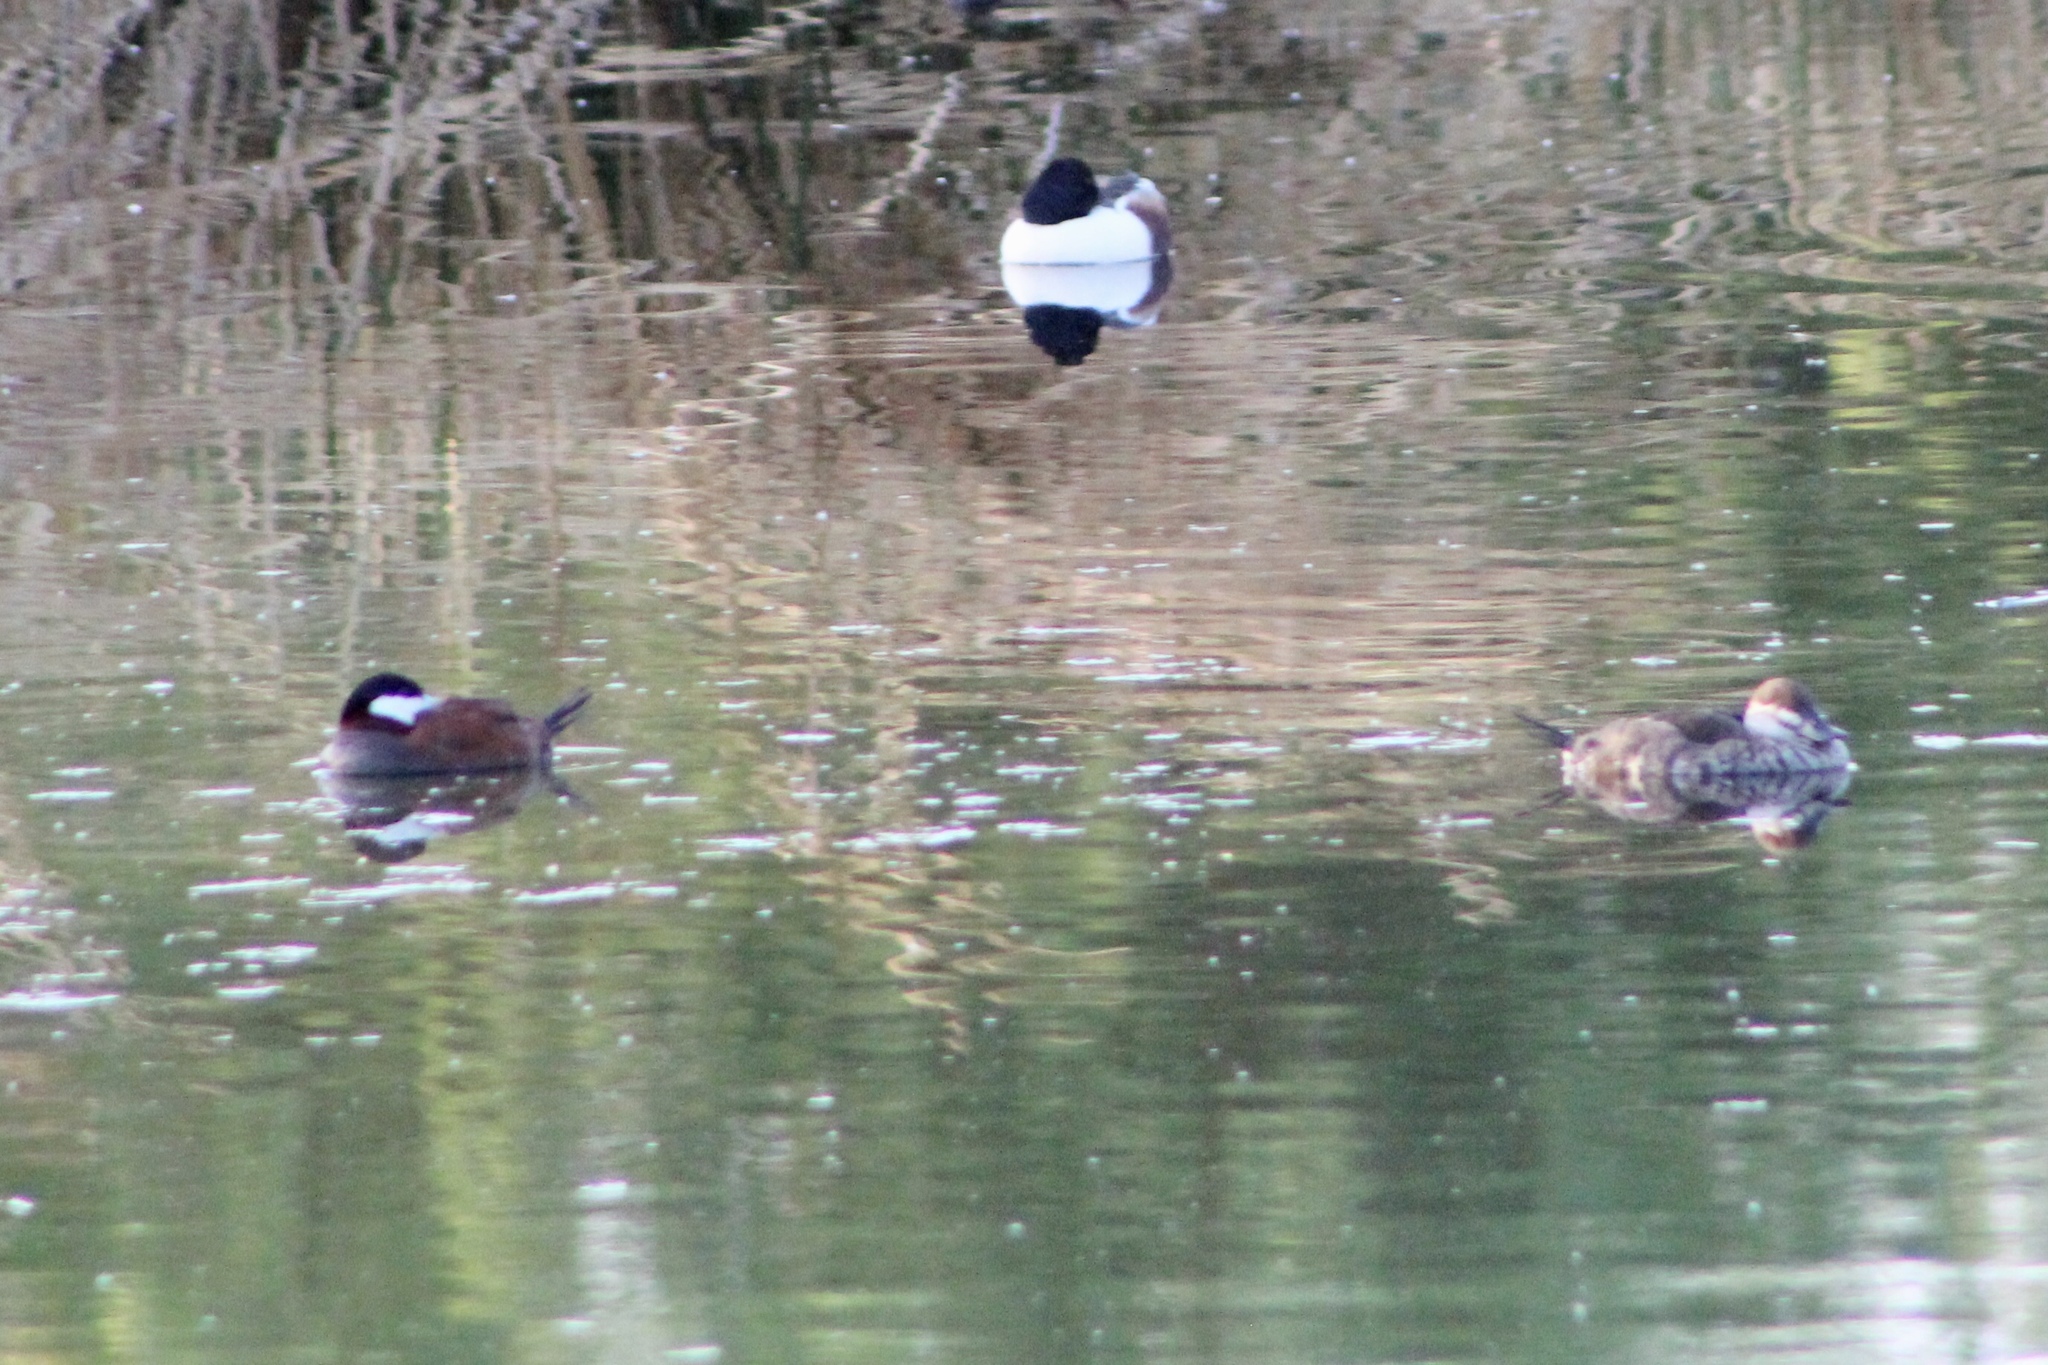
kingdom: Animalia
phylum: Chordata
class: Aves
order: Anseriformes
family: Anatidae
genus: Oxyura
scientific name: Oxyura jamaicensis
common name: Ruddy duck
